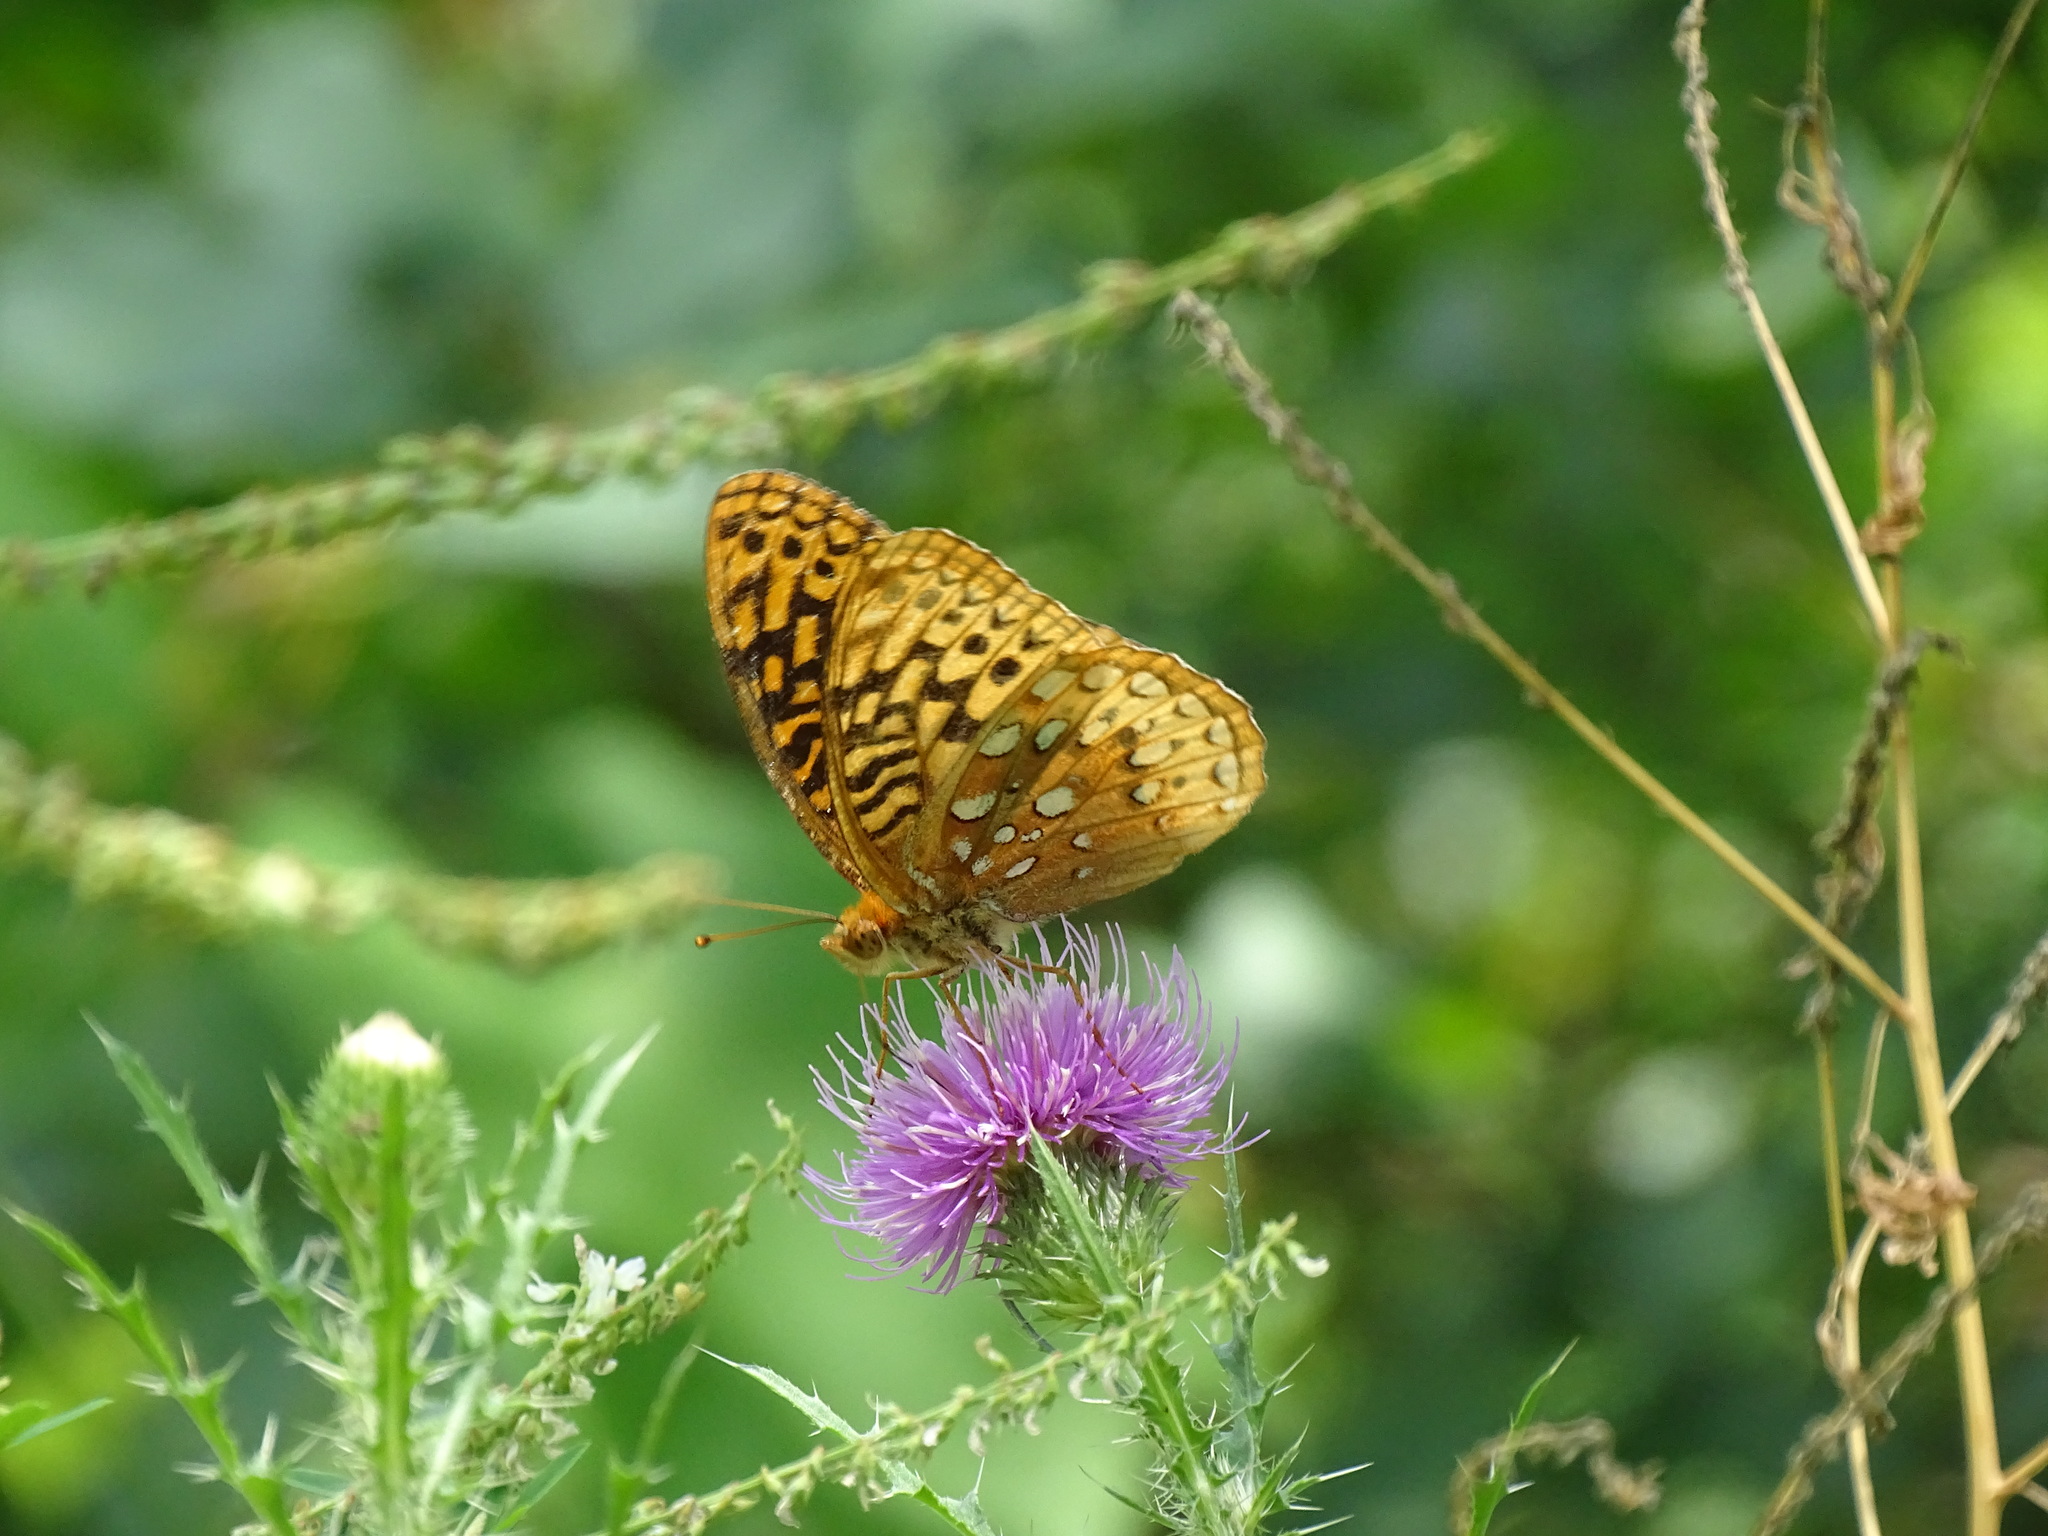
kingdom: Animalia
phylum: Arthropoda
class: Insecta
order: Lepidoptera
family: Nymphalidae
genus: Speyeria
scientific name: Speyeria cybele
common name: Great spangled fritillary
